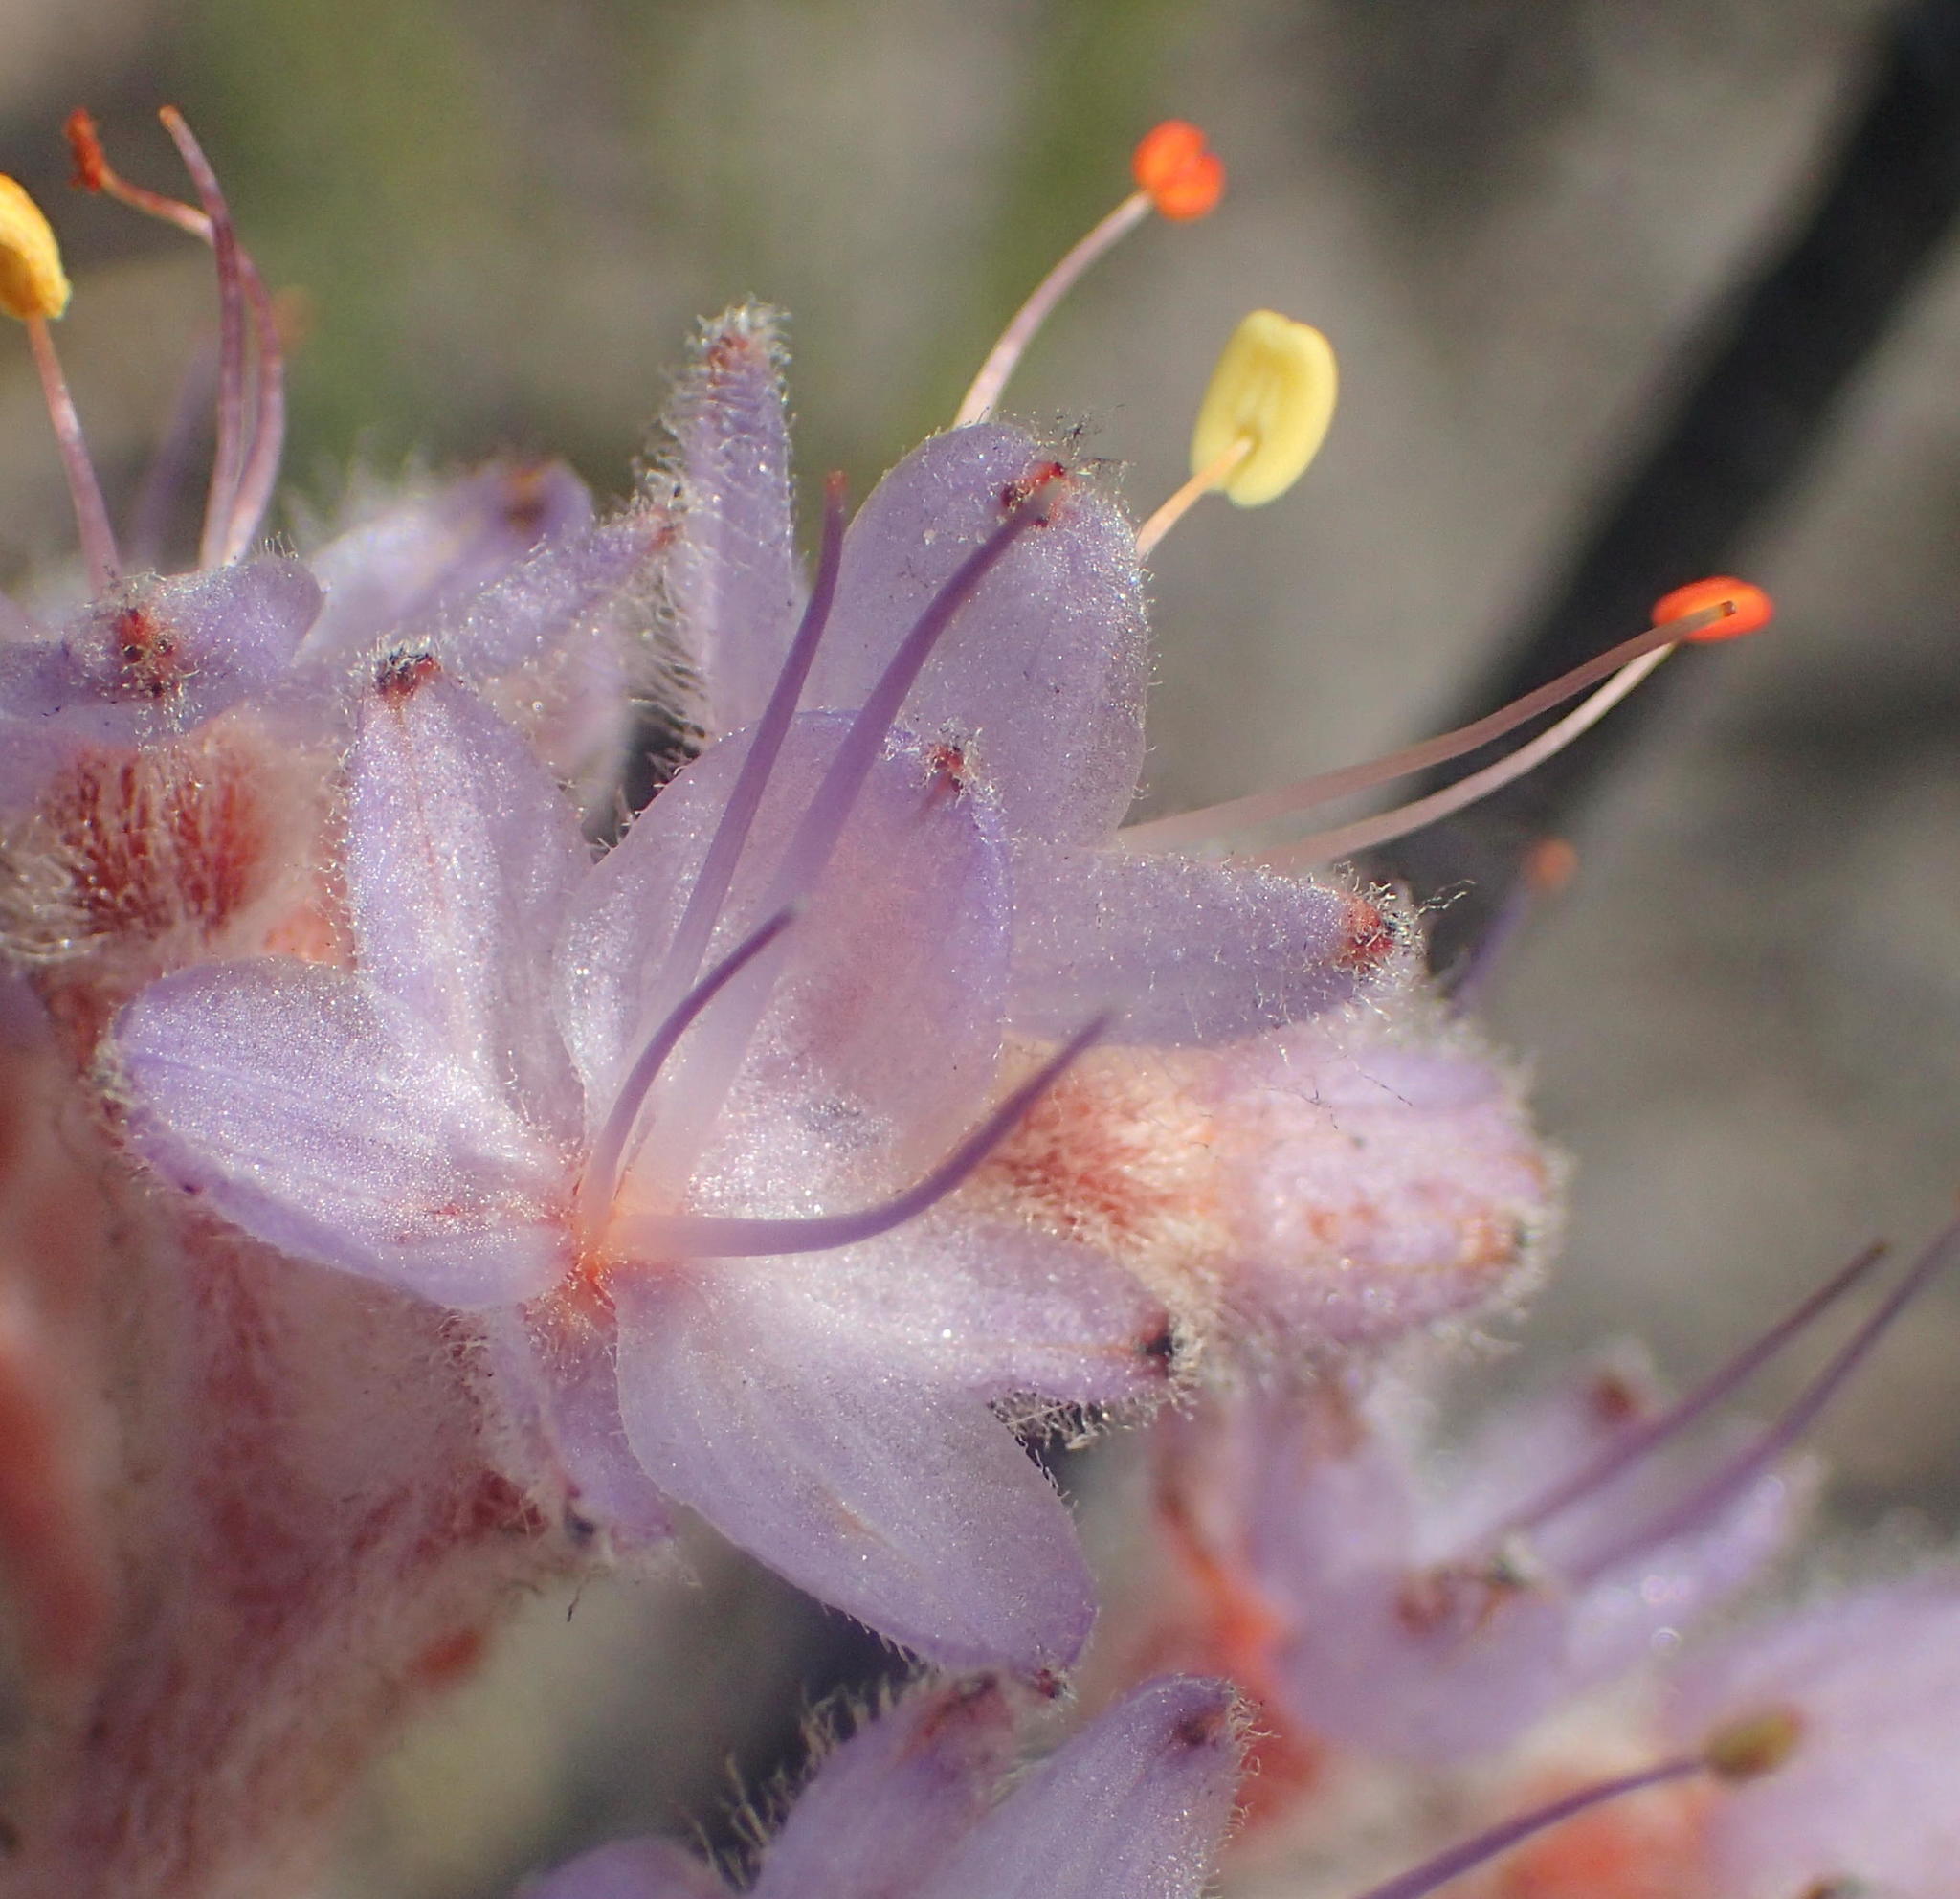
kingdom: Plantae
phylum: Tracheophyta
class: Liliopsida
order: Commelinales
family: Haemodoraceae
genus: Dilatris
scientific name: Dilatris ixioides
